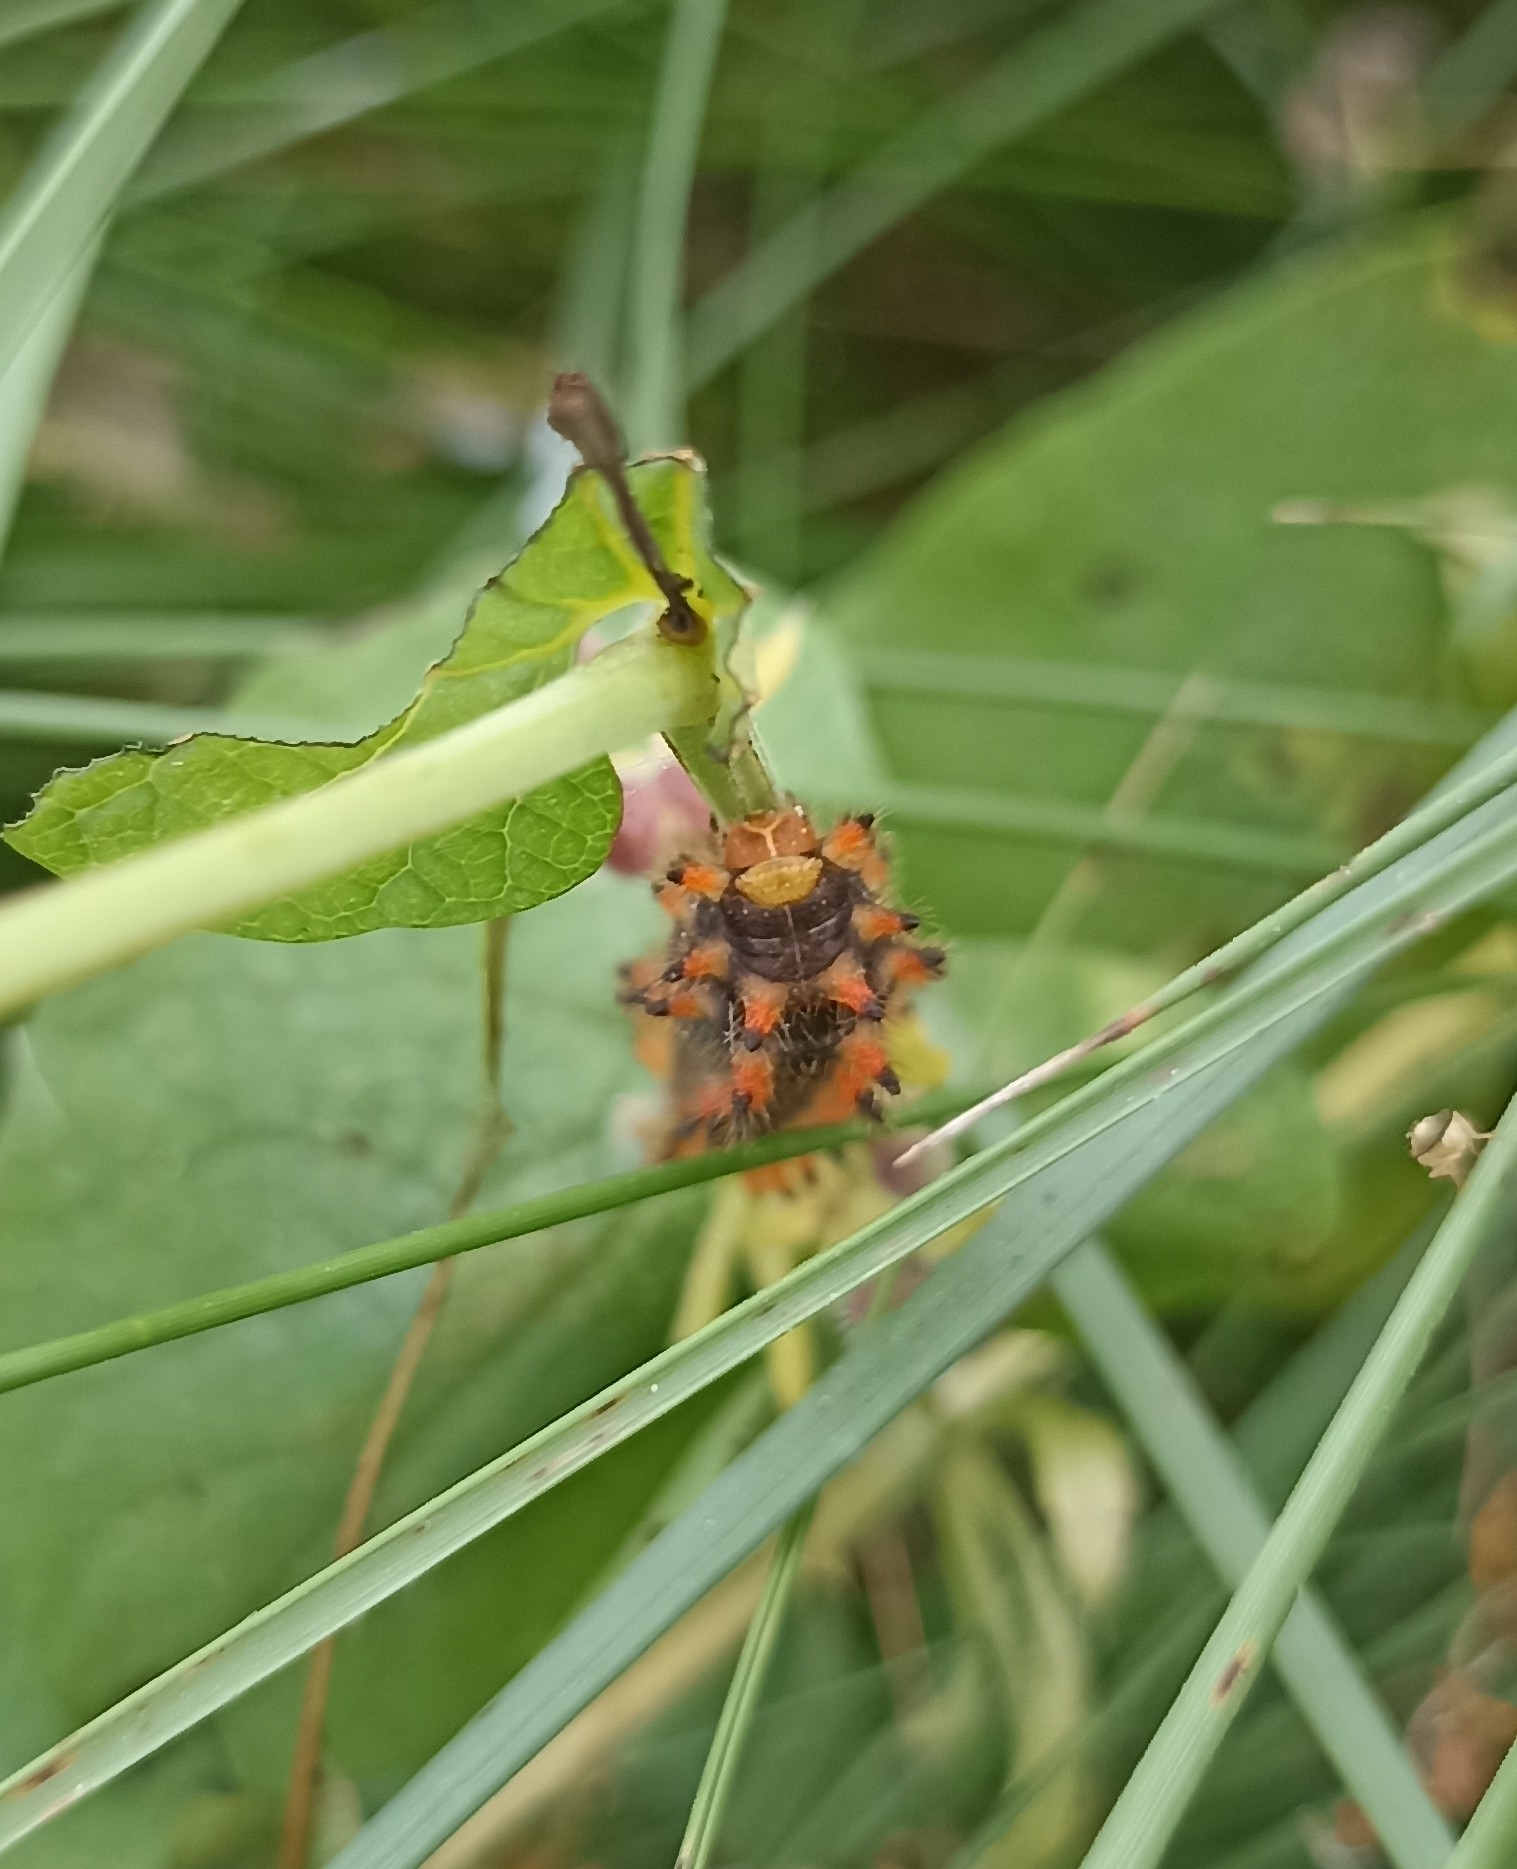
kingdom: Animalia
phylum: Arthropoda
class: Insecta
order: Lepidoptera
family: Papilionidae
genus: Zerynthia
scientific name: Zerynthia polyxena
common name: Southern festoon
